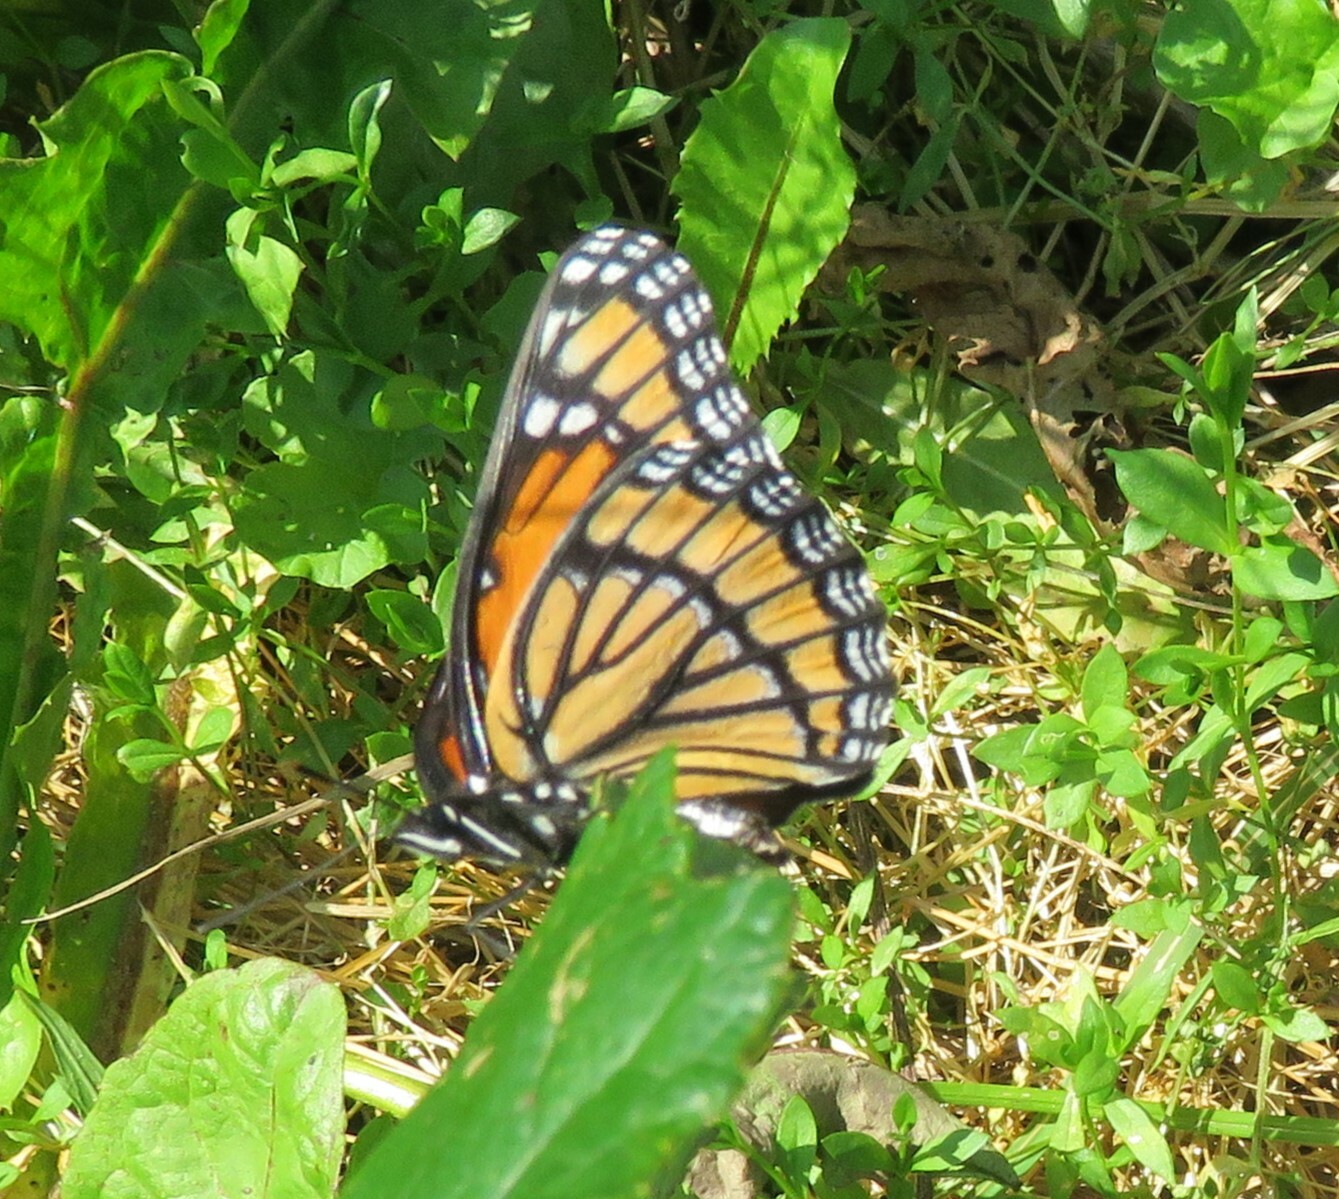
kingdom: Animalia
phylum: Arthropoda
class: Insecta
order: Lepidoptera
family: Nymphalidae
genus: Limenitis
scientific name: Limenitis archippus
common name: Viceroy
